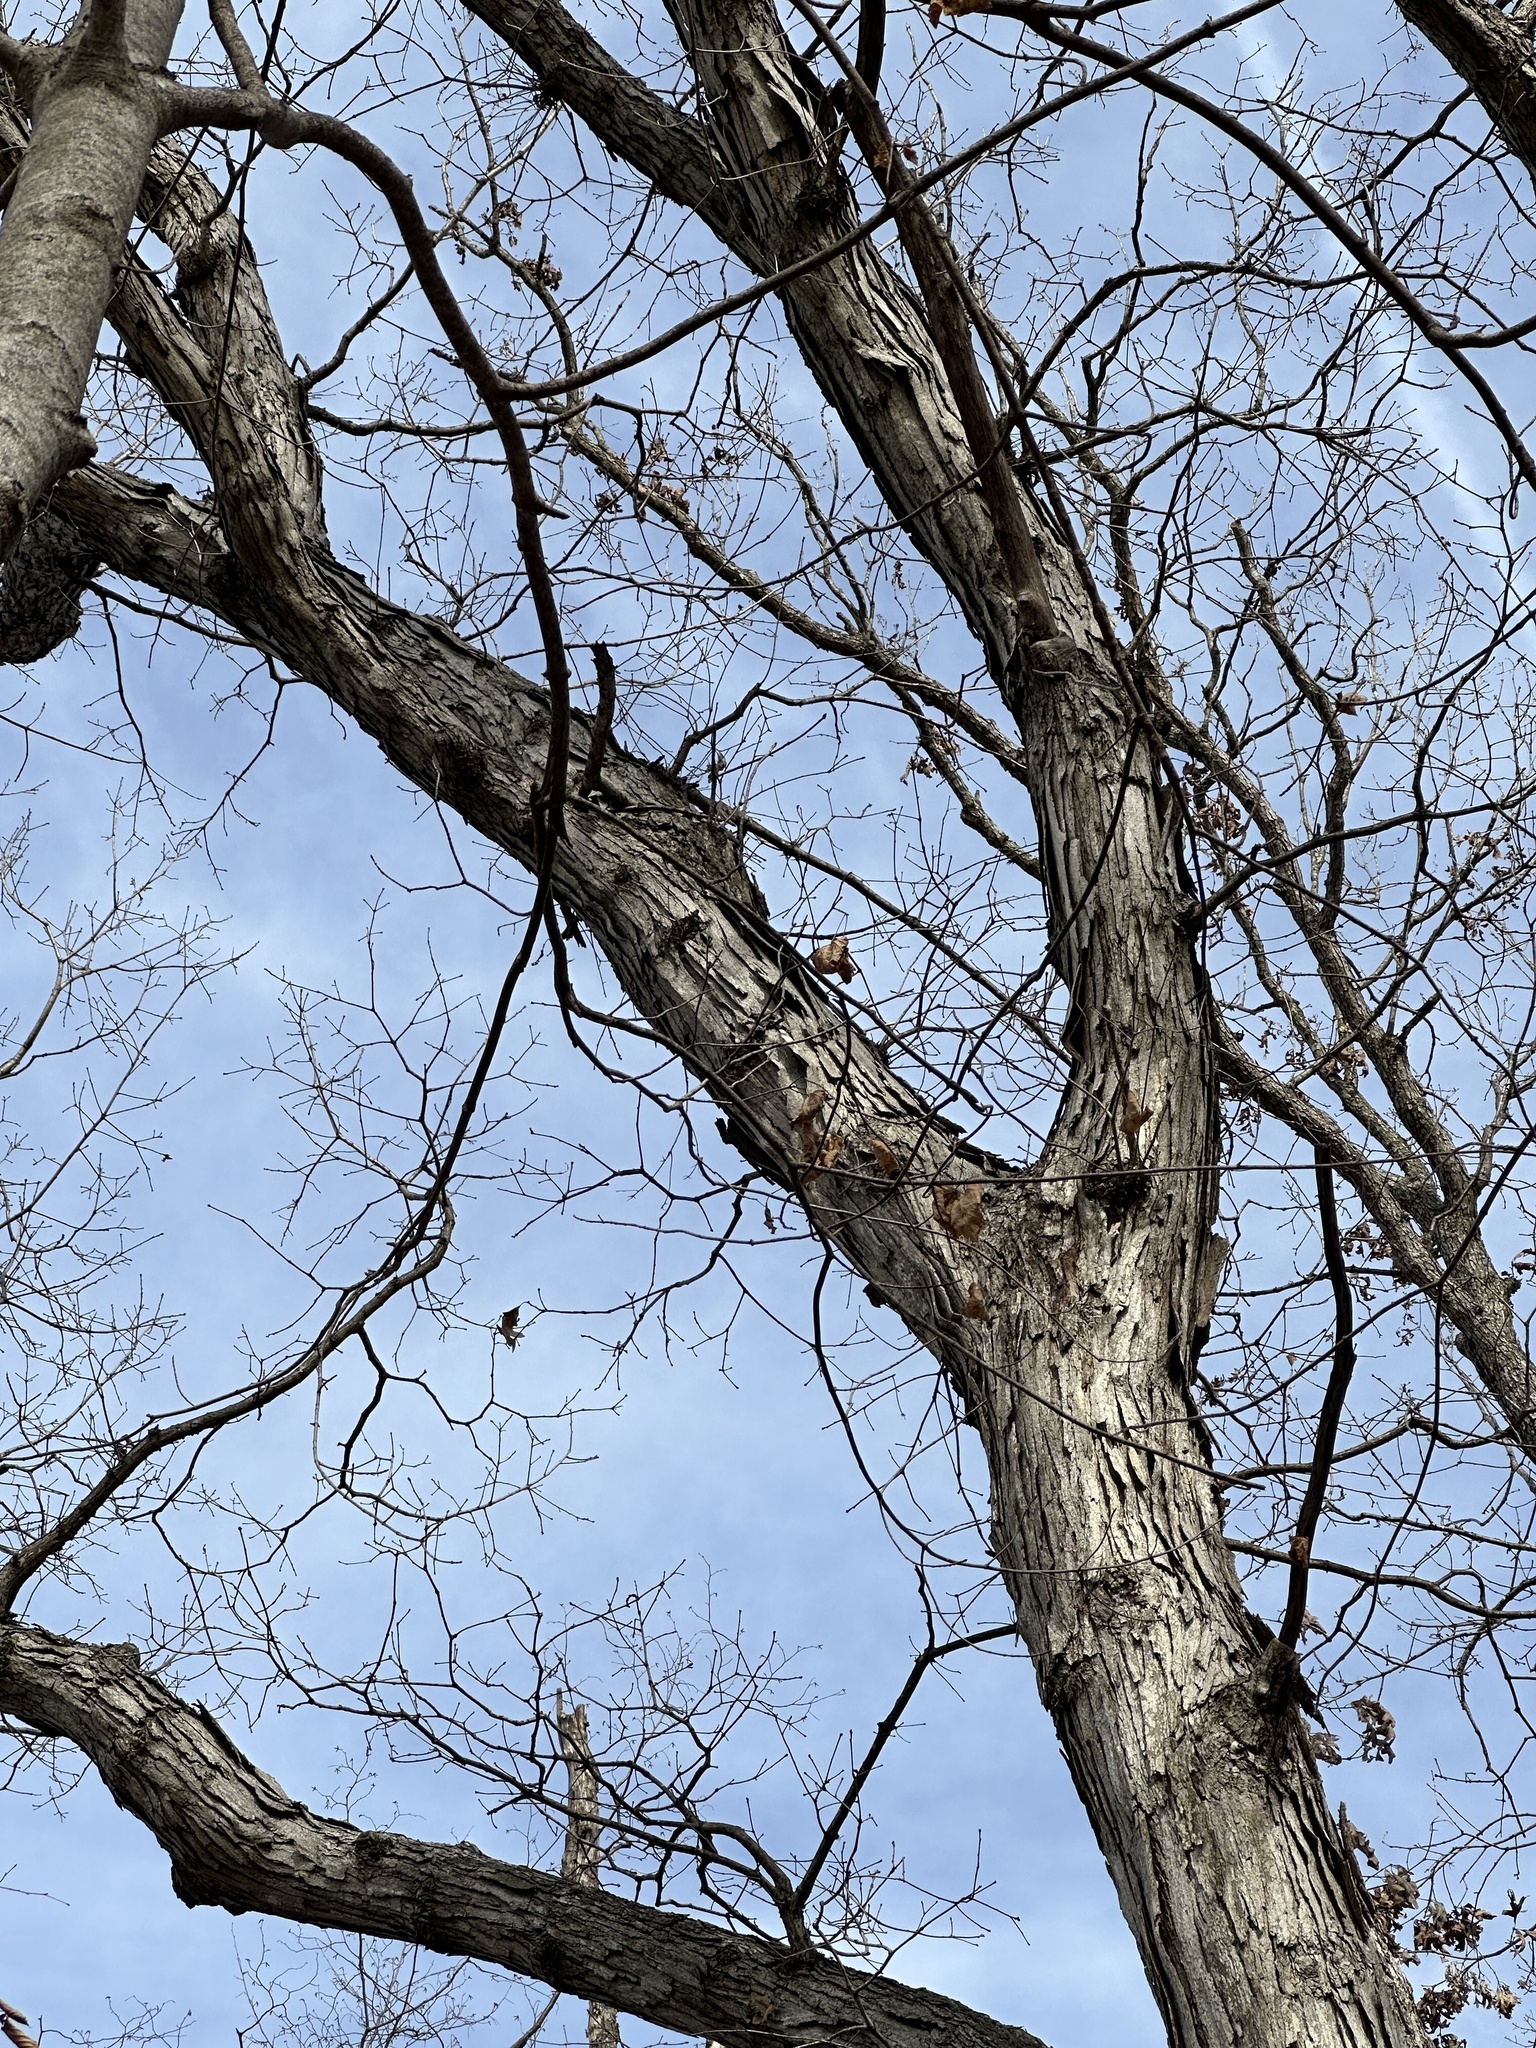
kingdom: Plantae
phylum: Tracheophyta
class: Magnoliopsida
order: Fagales
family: Fagaceae
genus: Quercus
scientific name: Quercus alba
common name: White oak
